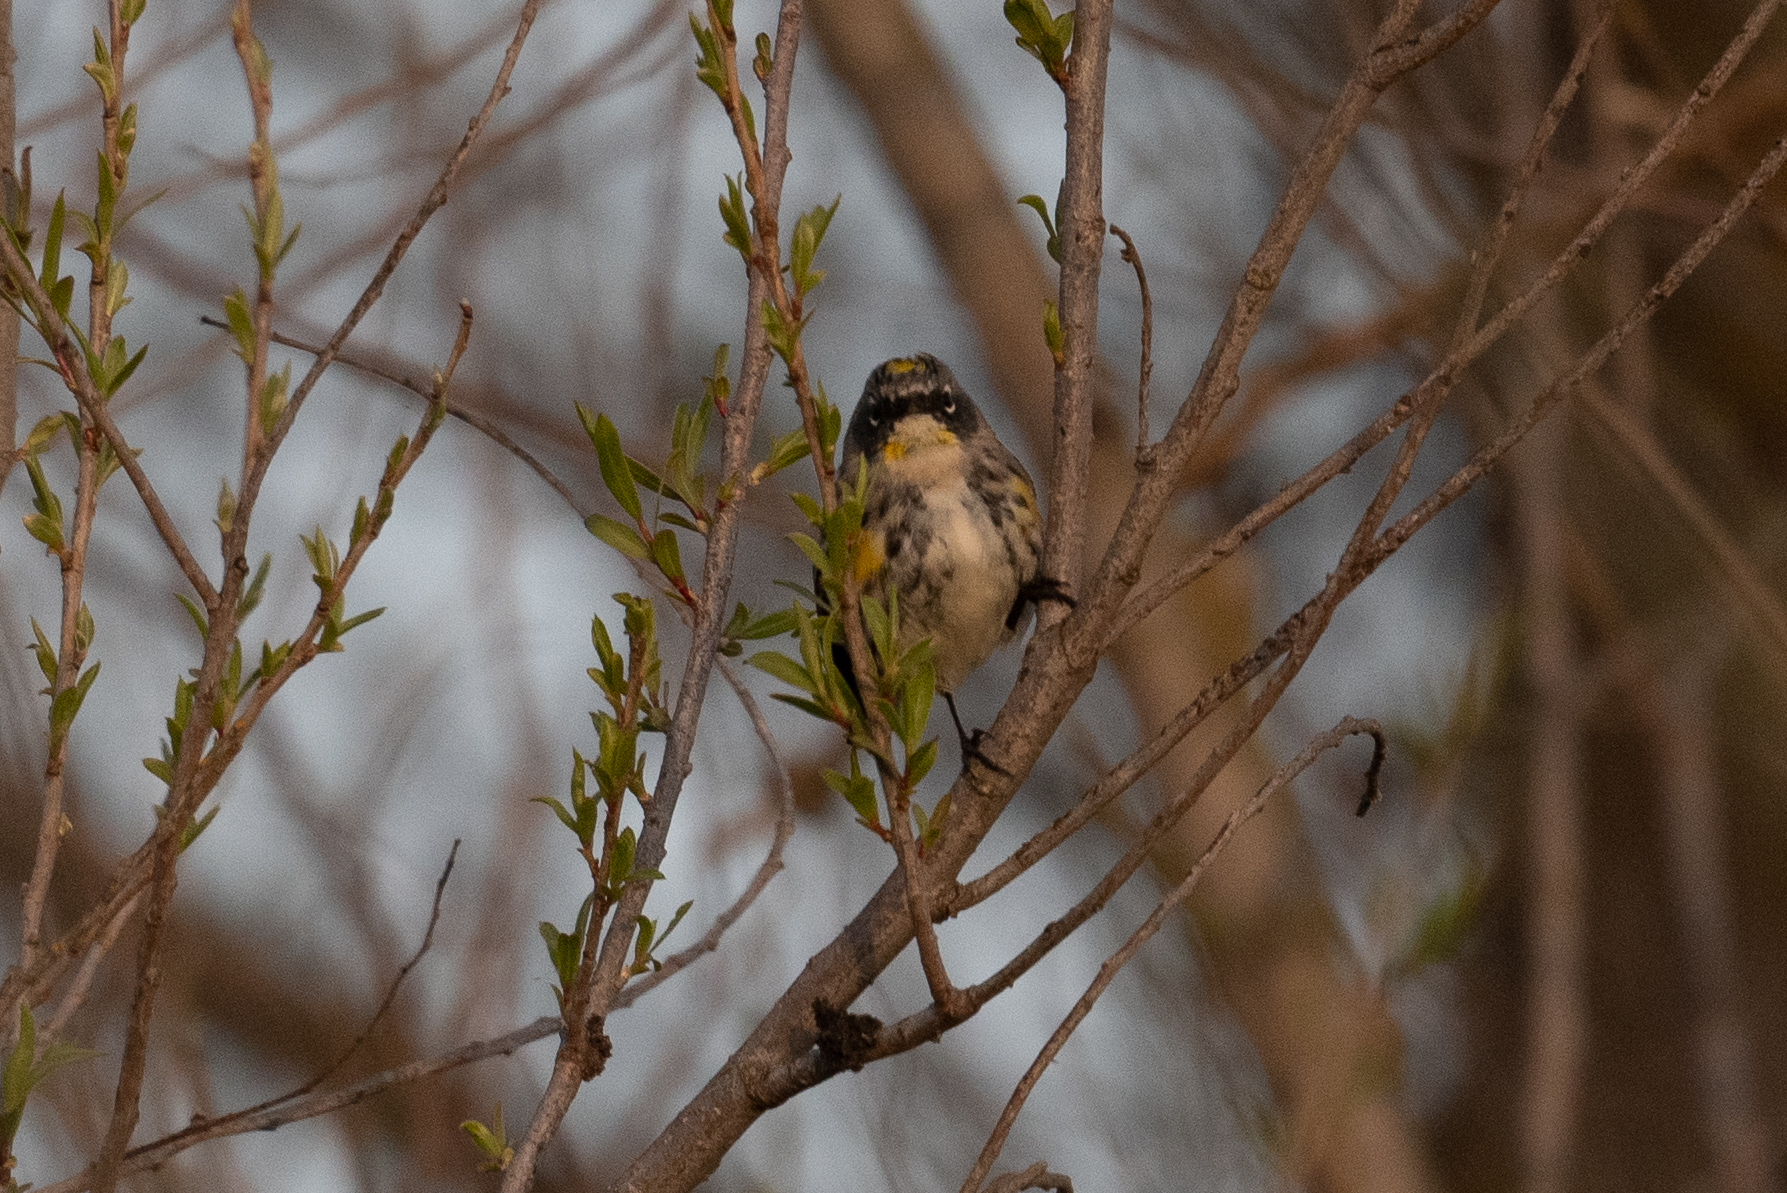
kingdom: Animalia
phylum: Chordata
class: Aves
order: Passeriformes
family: Parulidae
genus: Setophaga
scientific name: Setophaga coronata
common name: Myrtle warbler
